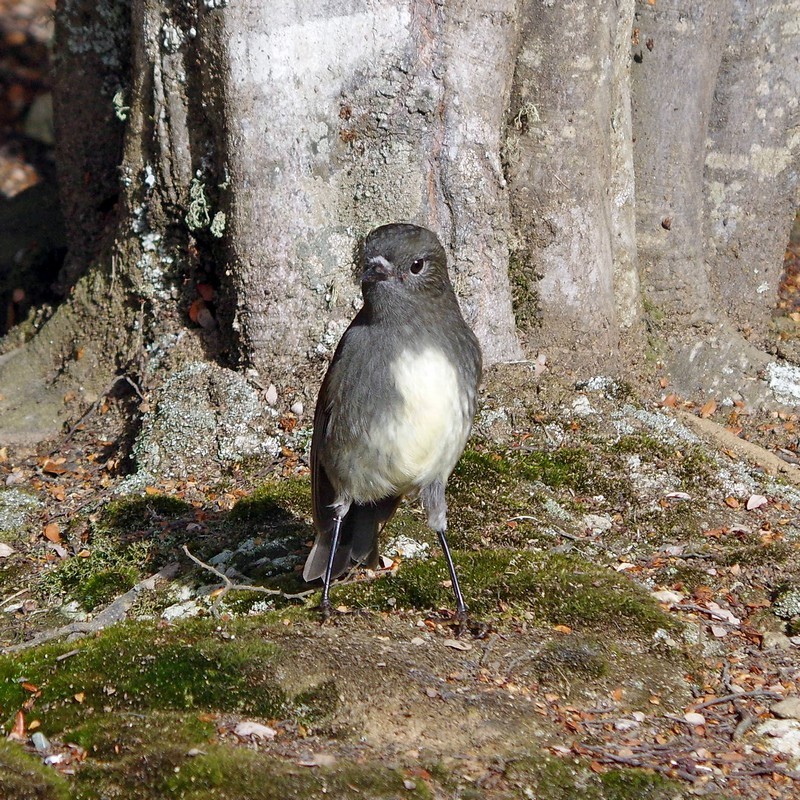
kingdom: Animalia
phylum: Chordata
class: Aves
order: Passeriformes
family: Petroicidae
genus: Petroica
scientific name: Petroica australis
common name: New zealand robin
